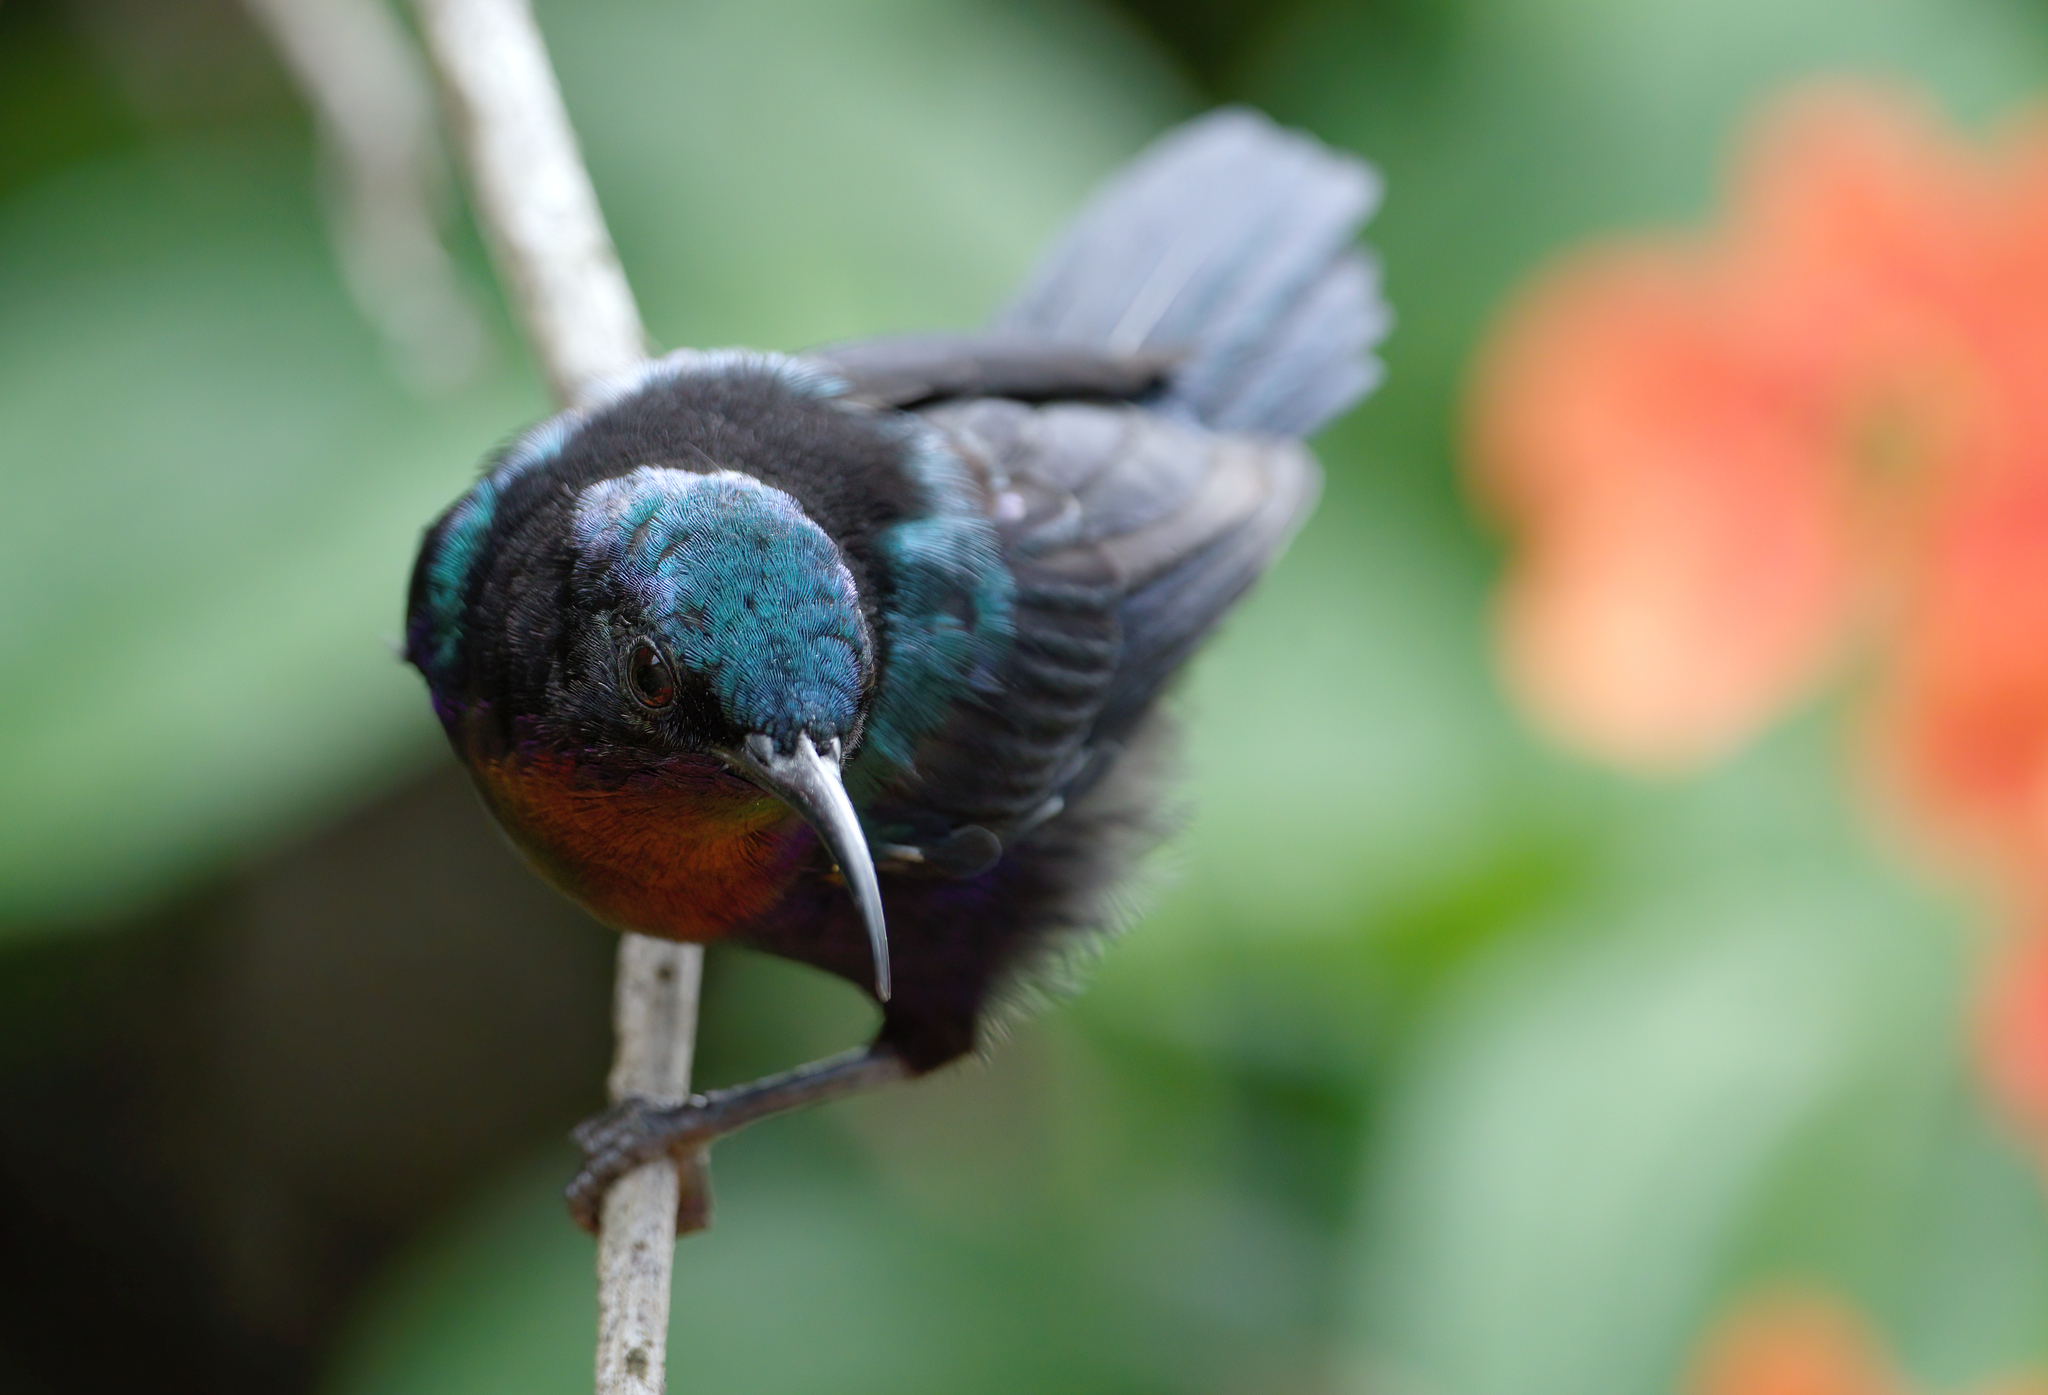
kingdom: Animalia
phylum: Chordata
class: Aves
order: Passeriformes
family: Nectariniidae
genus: Leptocoma
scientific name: Leptocoma calcostetha
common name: Copper-throated sunbird
